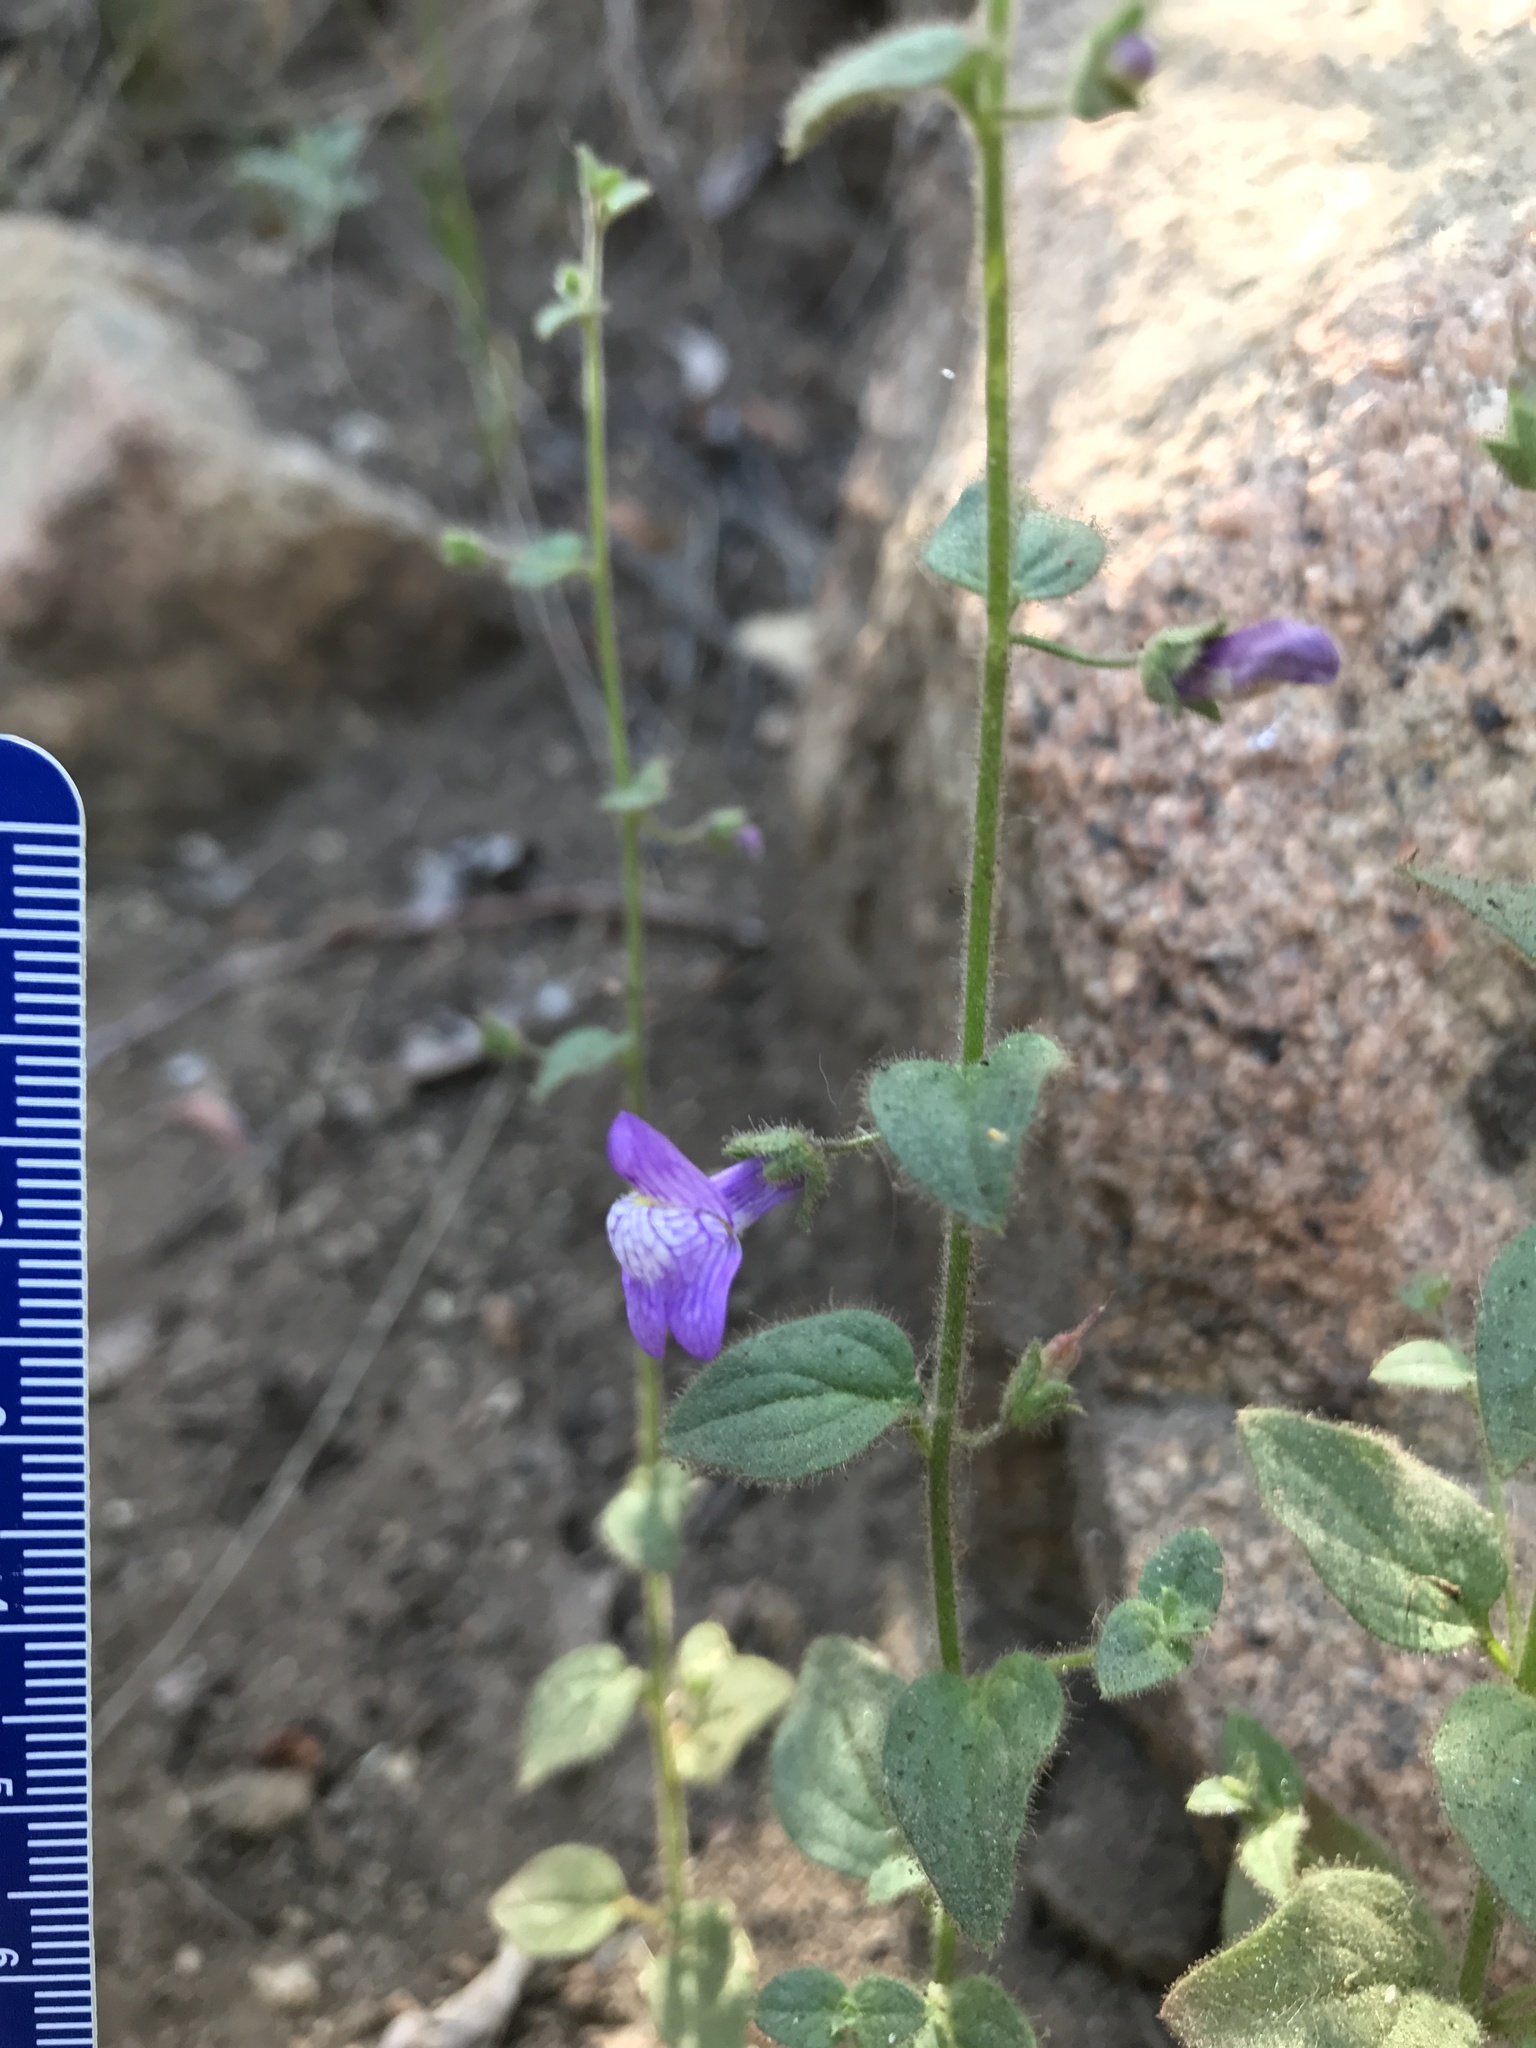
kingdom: Plantae
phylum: Tracheophyta
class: Magnoliopsida
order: Lamiales
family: Plantaginaceae
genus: Sairocarpus
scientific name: Sairocarpus nuttallianus
